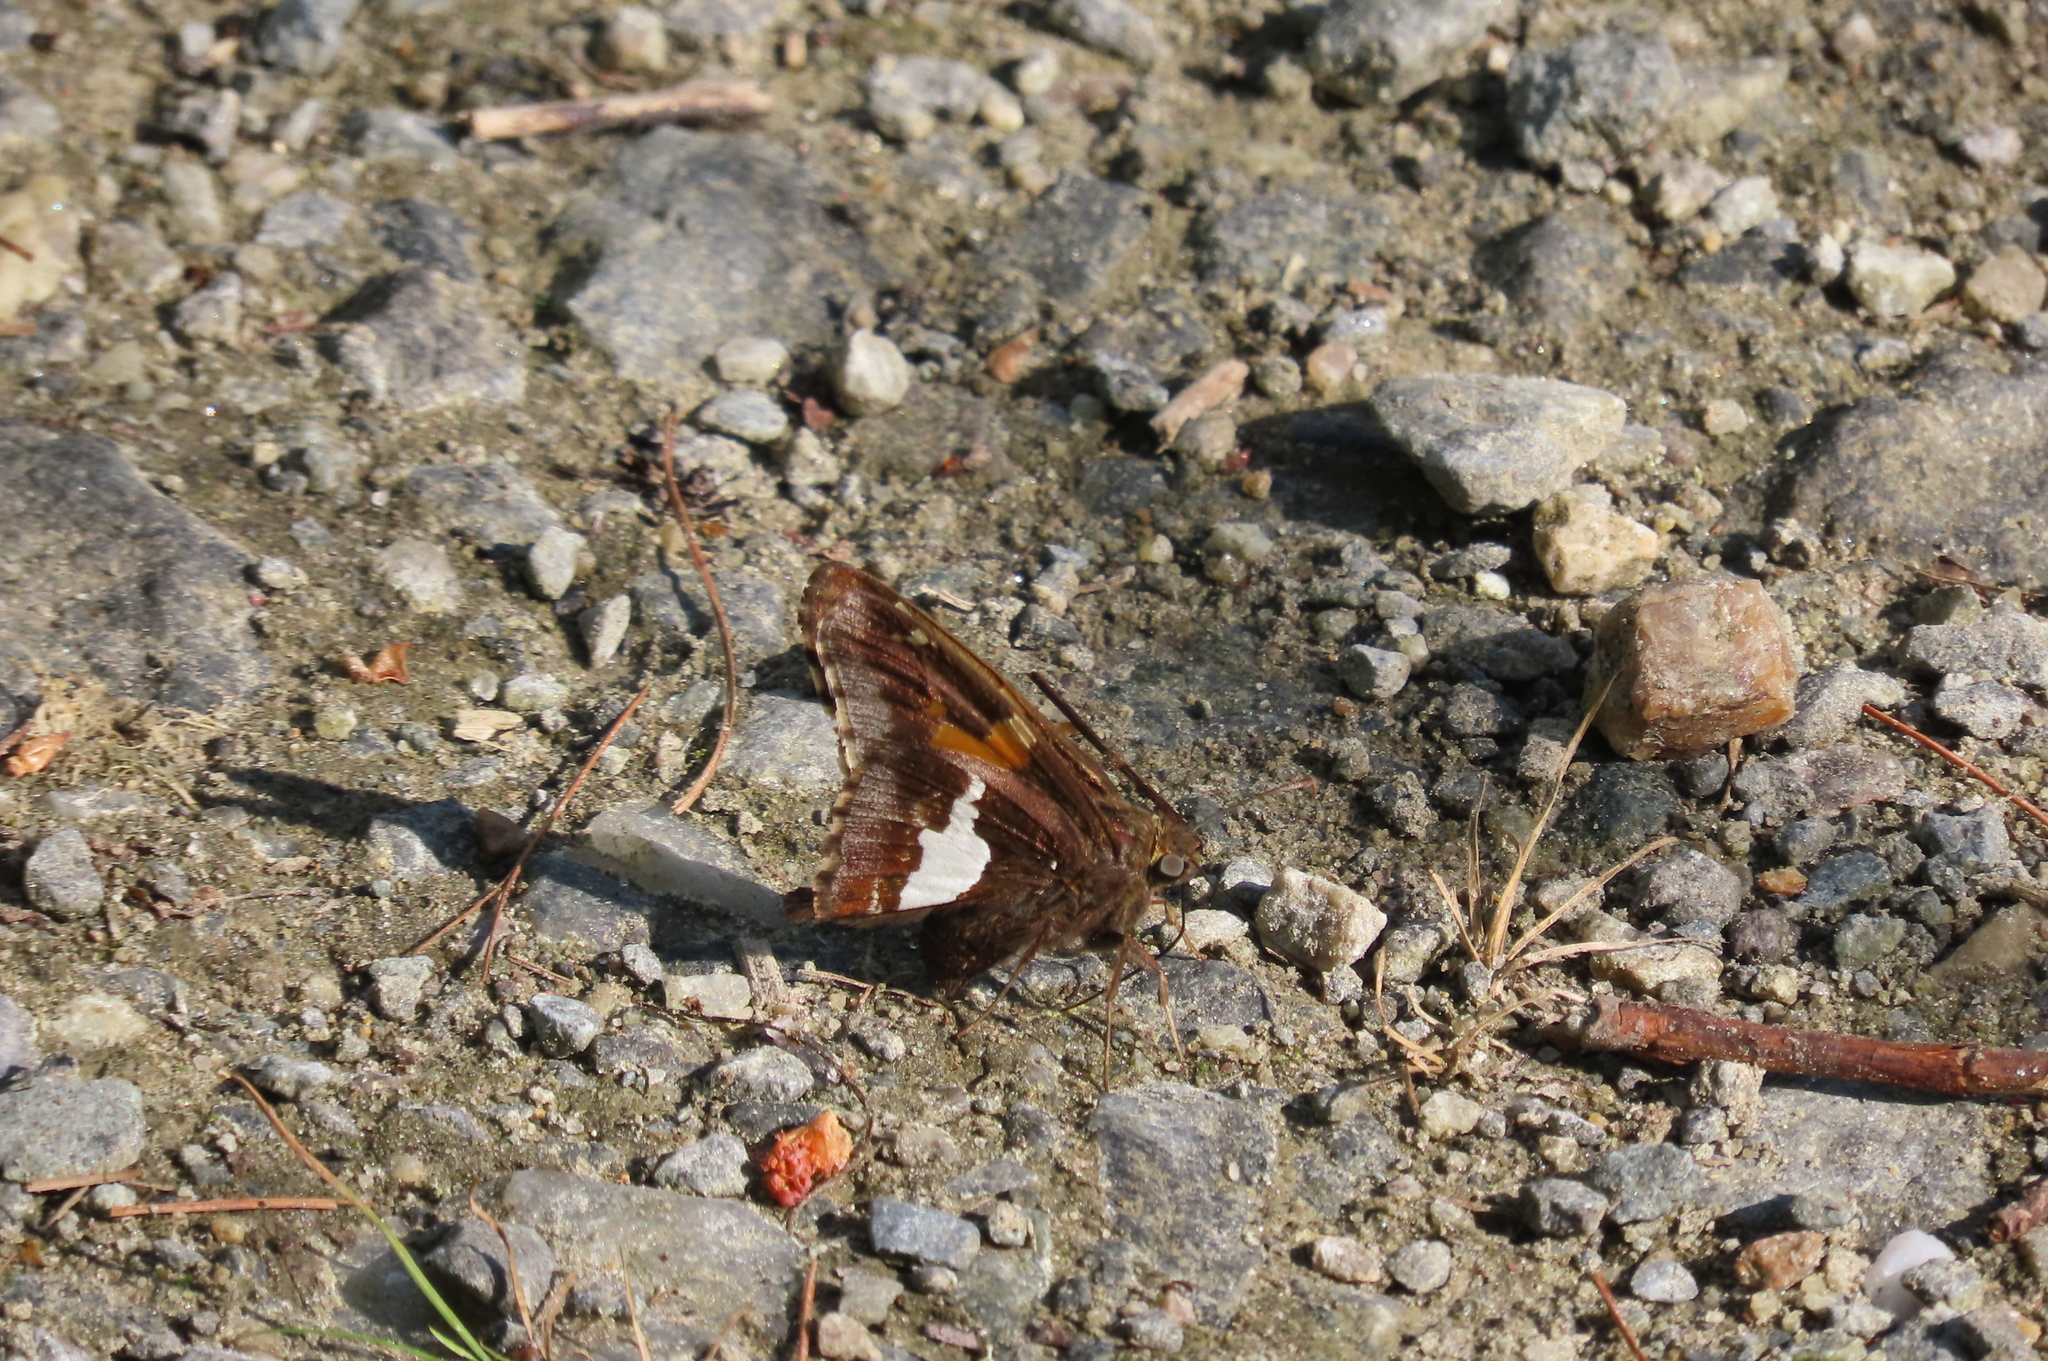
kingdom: Animalia
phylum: Arthropoda
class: Insecta
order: Lepidoptera
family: Hesperiidae
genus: Epargyreus
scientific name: Epargyreus clarus
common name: Silver-spotted skipper
